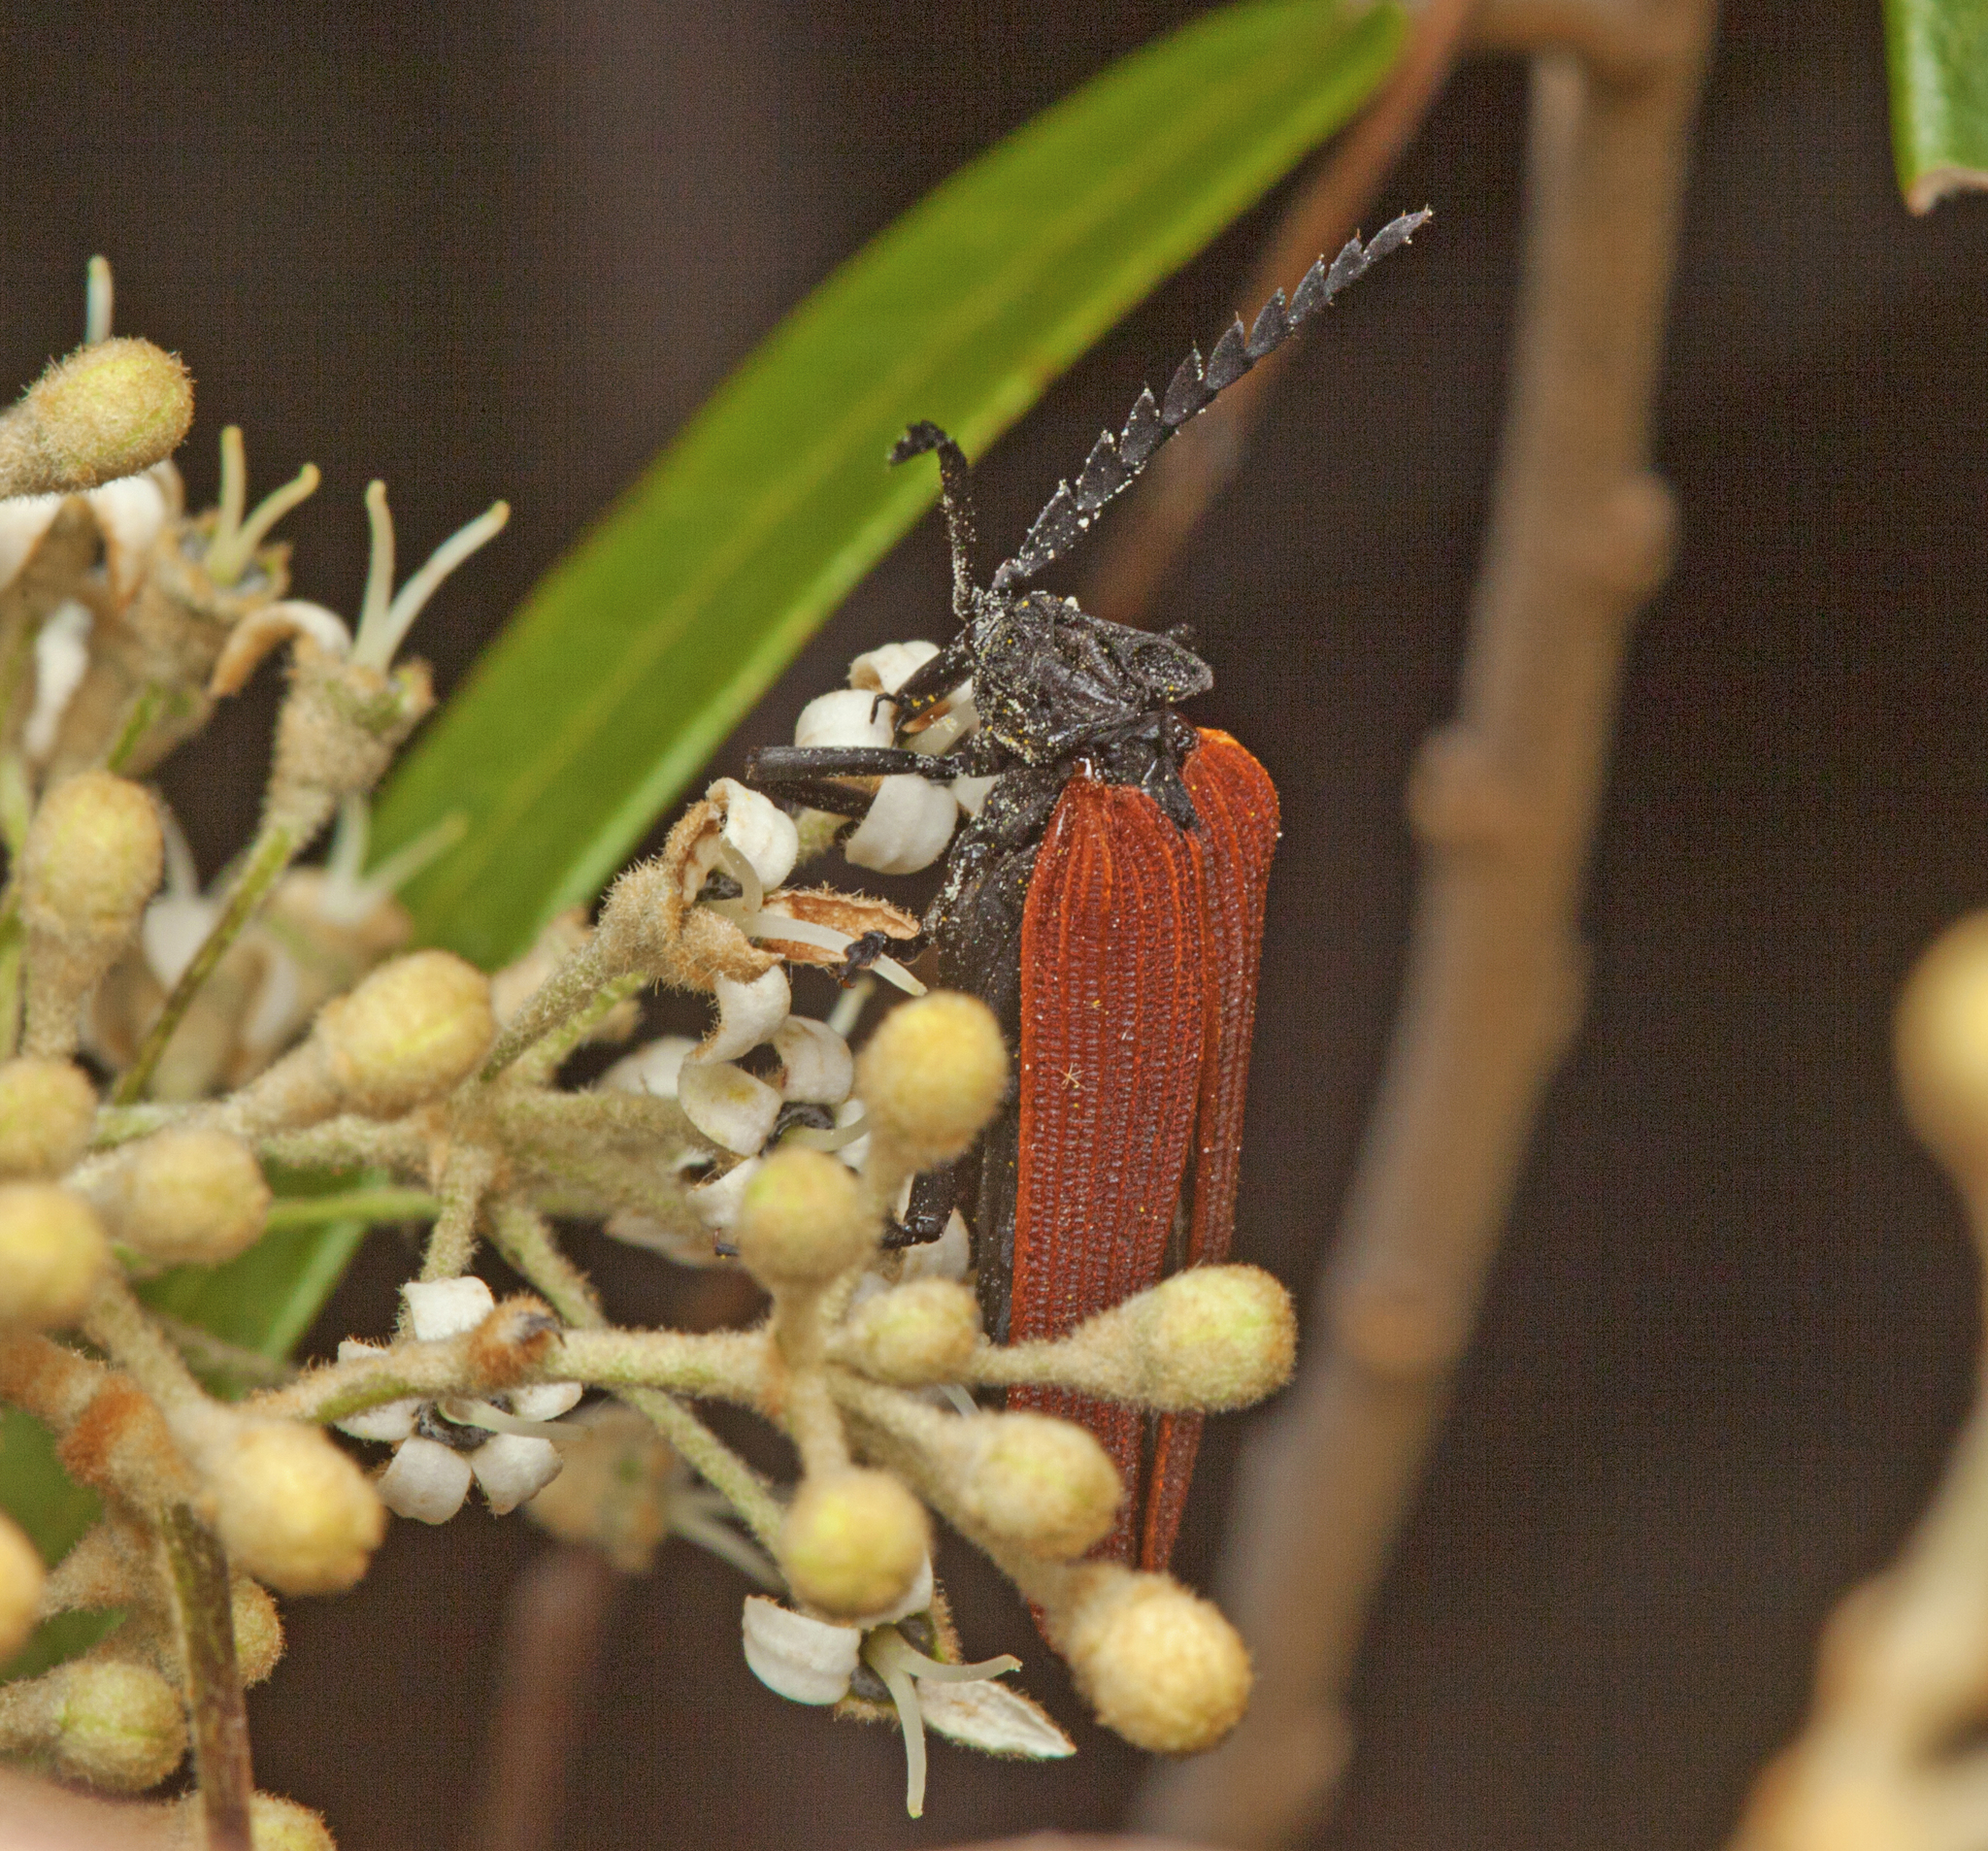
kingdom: Animalia
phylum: Arthropoda
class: Insecta
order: Coleoptera
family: Lycidae
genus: Porrostoma
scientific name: Porrostoma rhipidium
